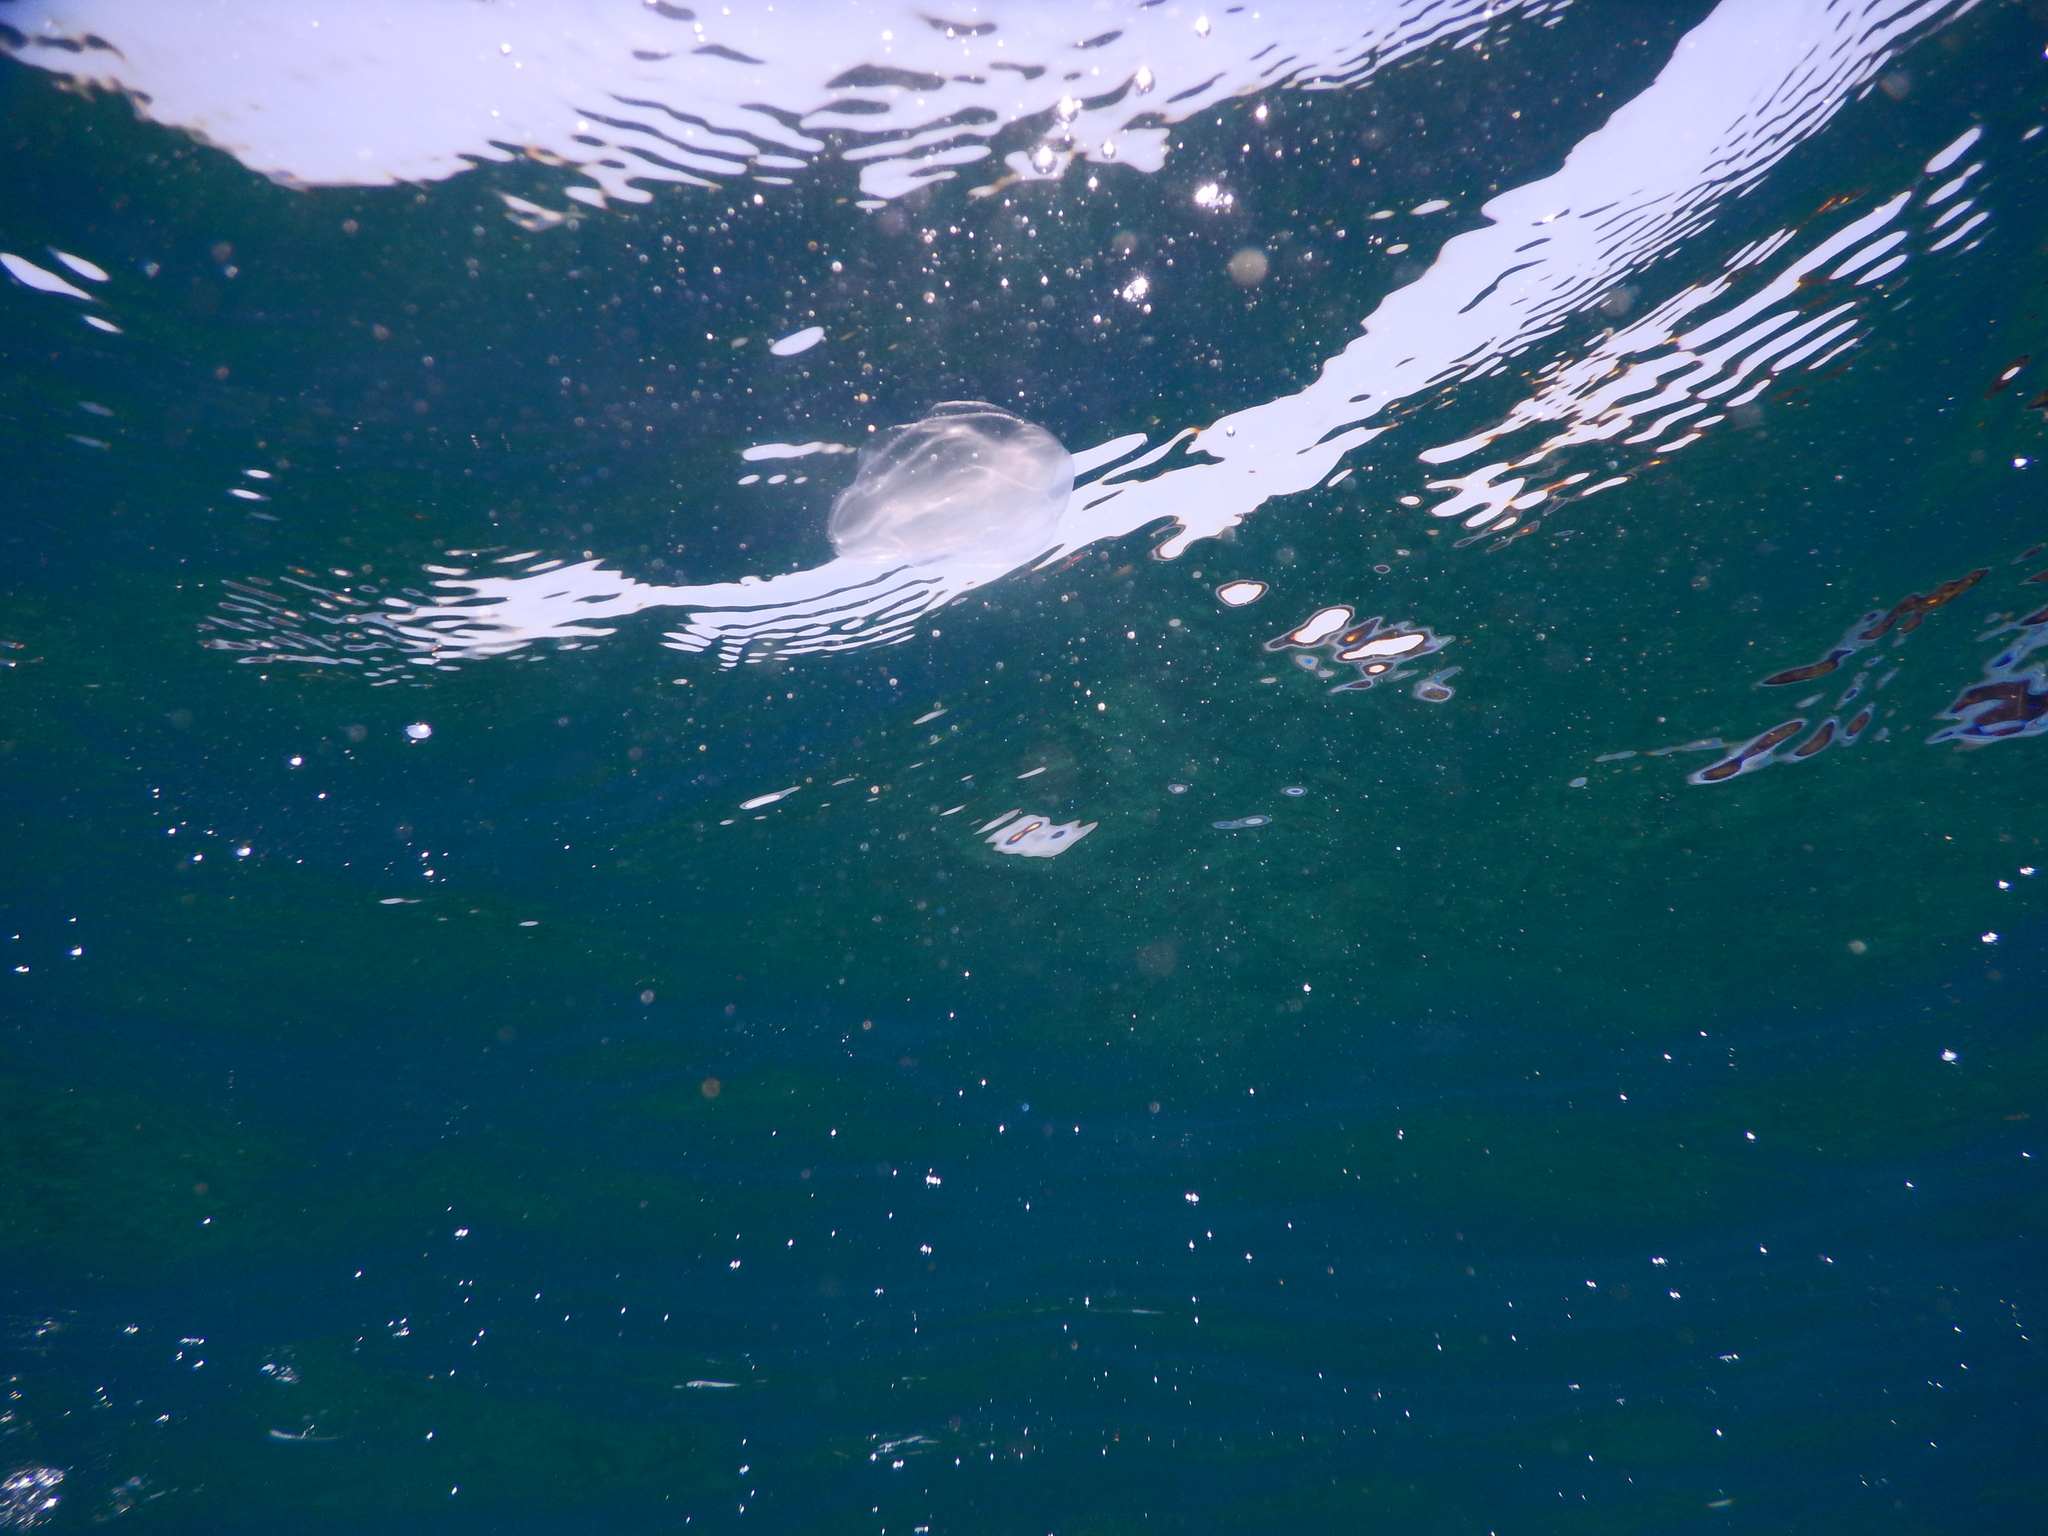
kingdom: Animalia
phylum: Ctenophora
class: Tentaculata
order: Lobata
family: Bolinopsidae
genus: Mnemiopsis
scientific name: Mnemiopsis leidyi
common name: American comb jelly
